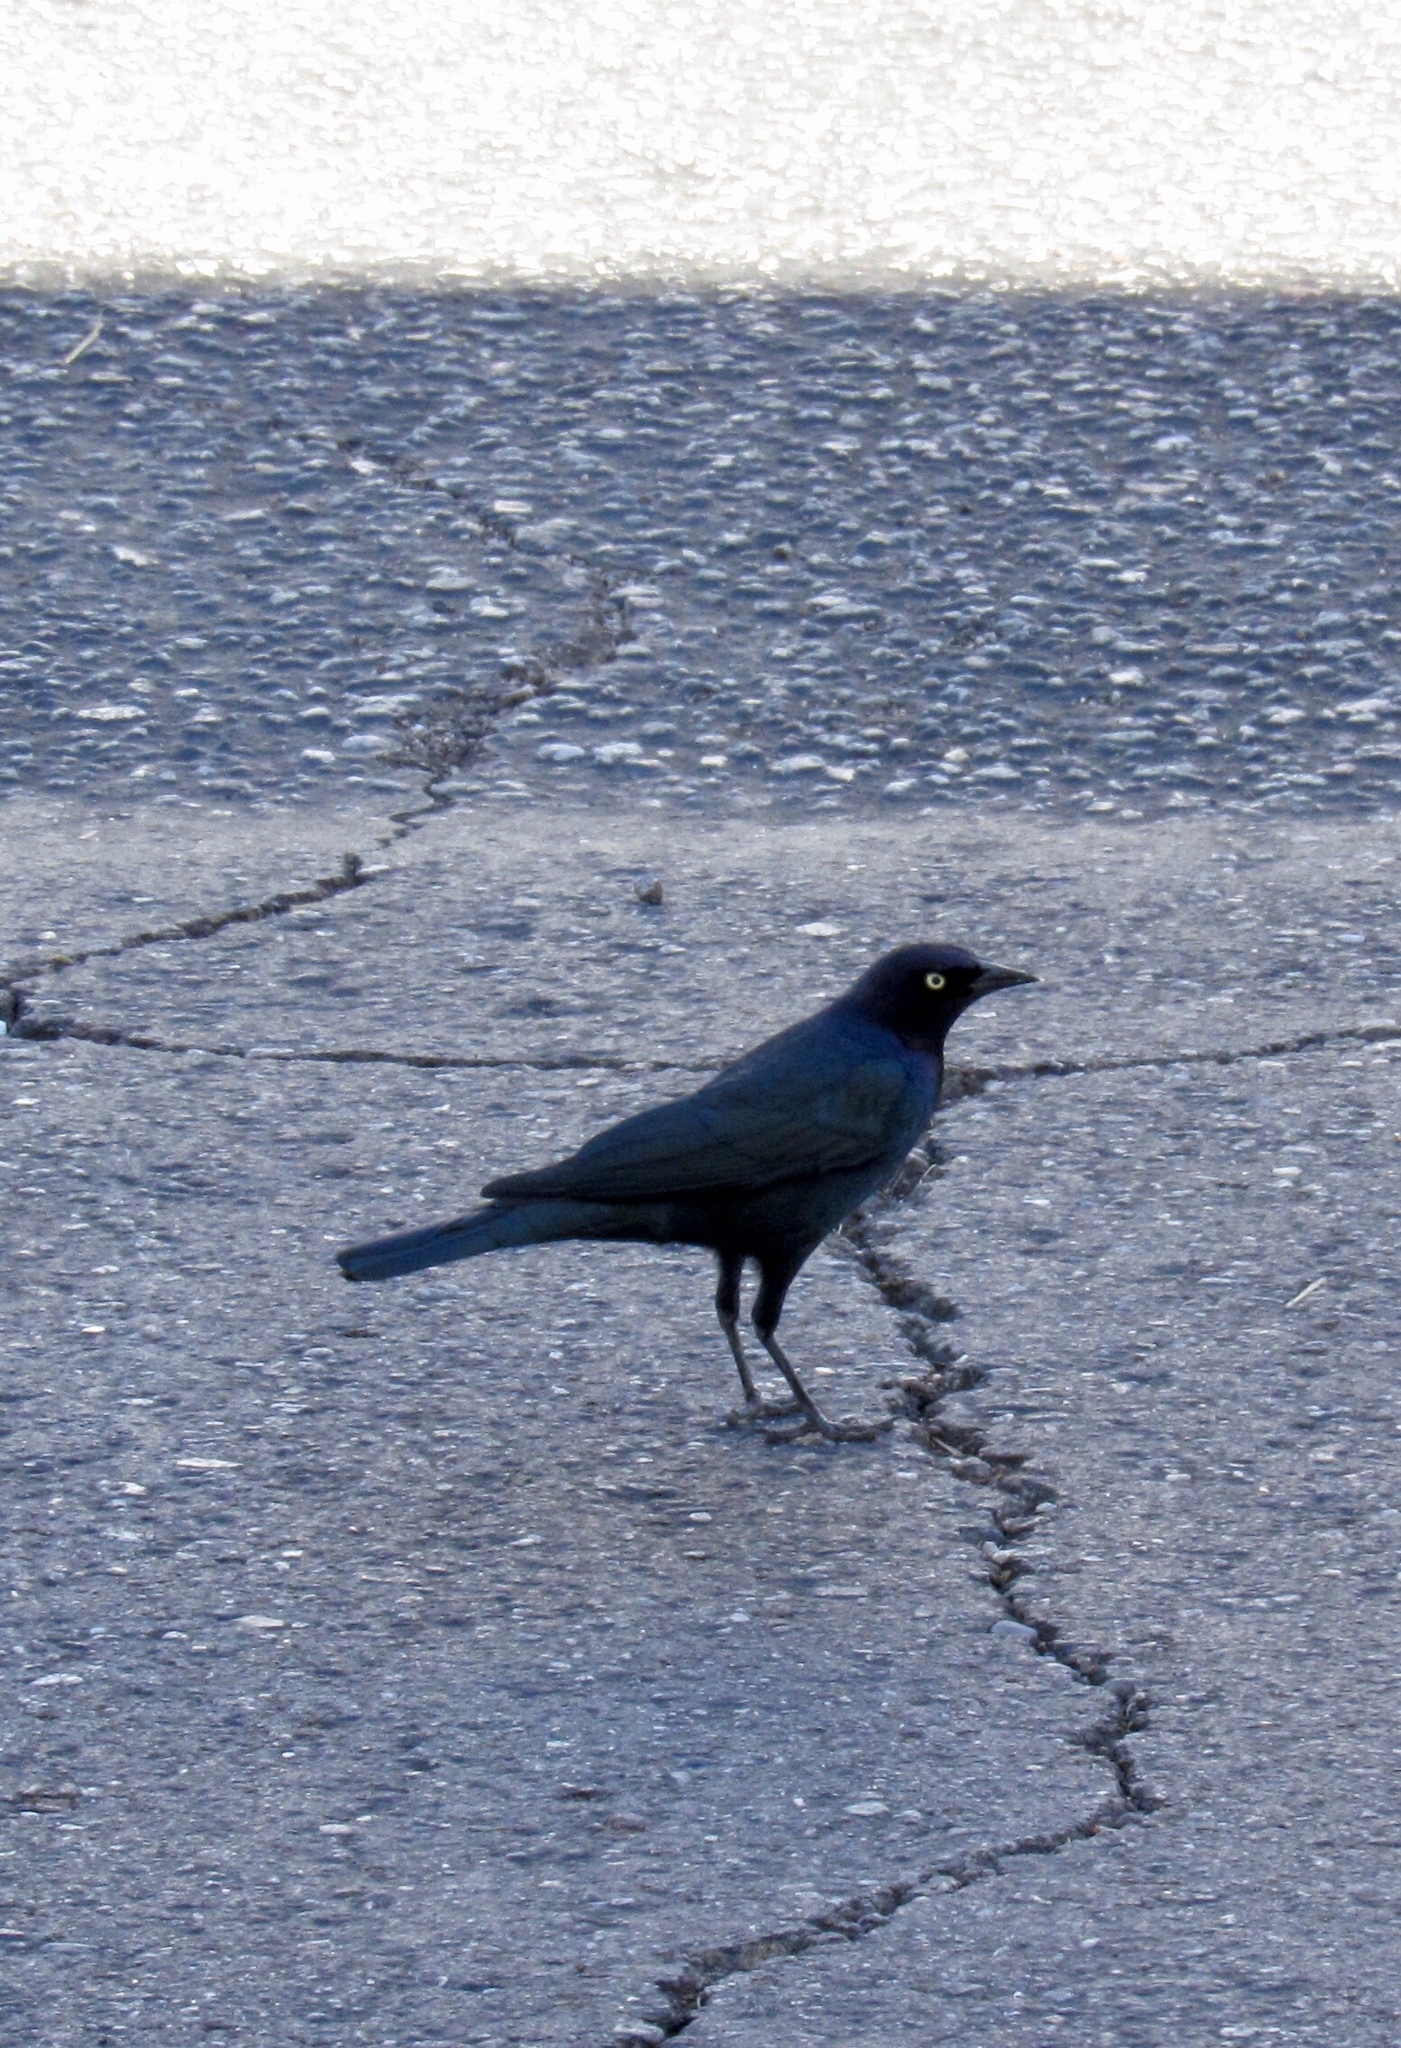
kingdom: Animalia
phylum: Chordata
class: Aves
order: Passeriformes
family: Icteridae
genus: Euphagus
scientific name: Euphagus cyanocephalus
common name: Brewer's blackbird
